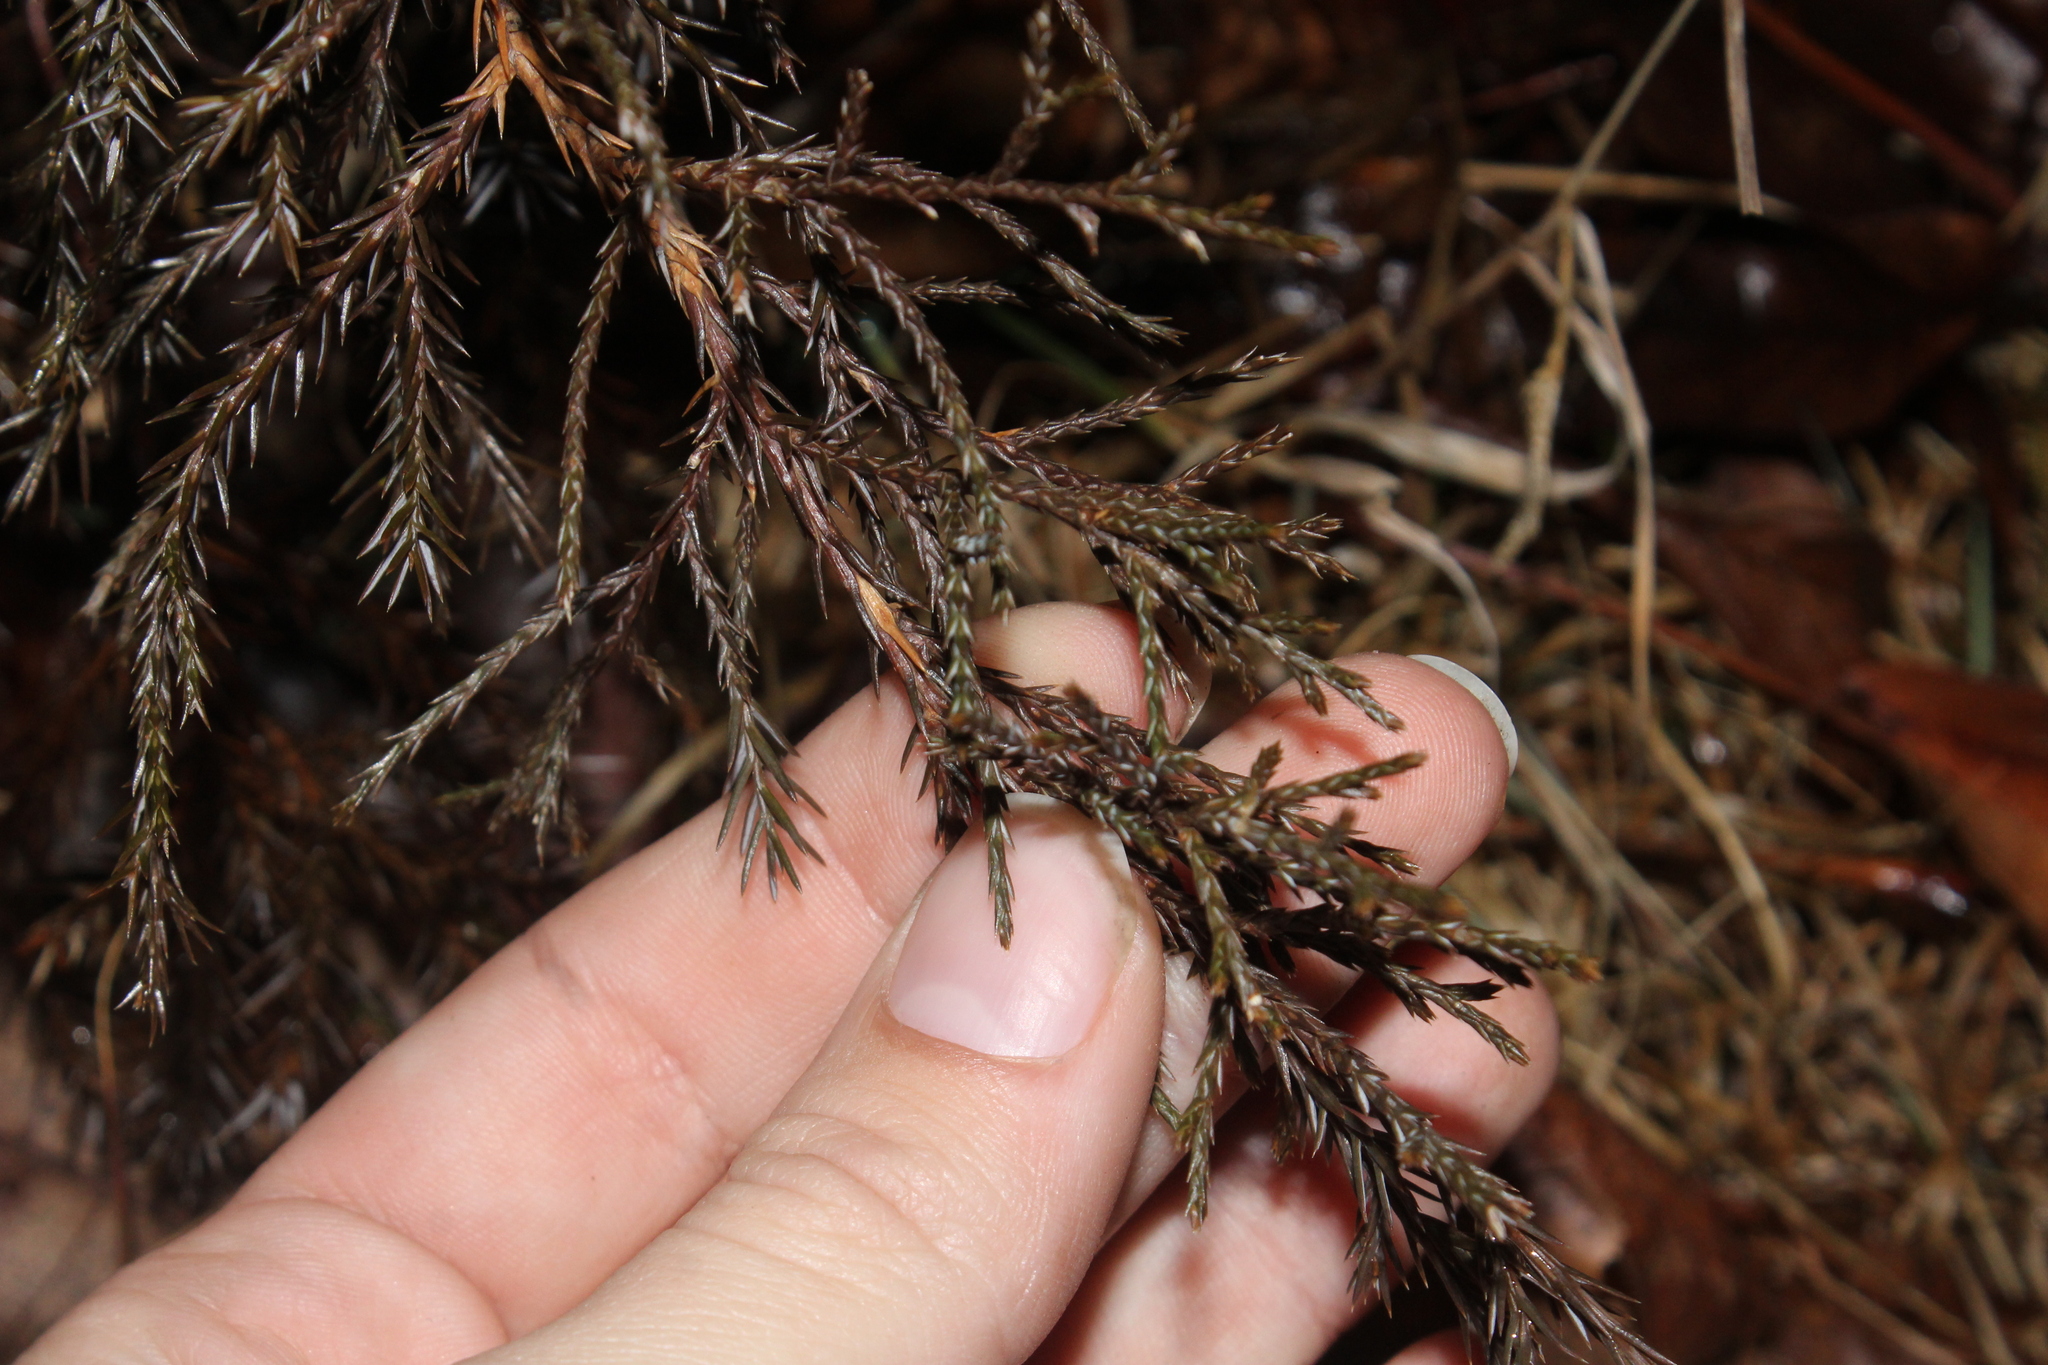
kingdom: Plantae
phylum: Tracheophyta
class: Pinopsida
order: Pinales
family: Cupressaceae
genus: Juniperus
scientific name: Juniperus virginiana
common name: Red juniper
